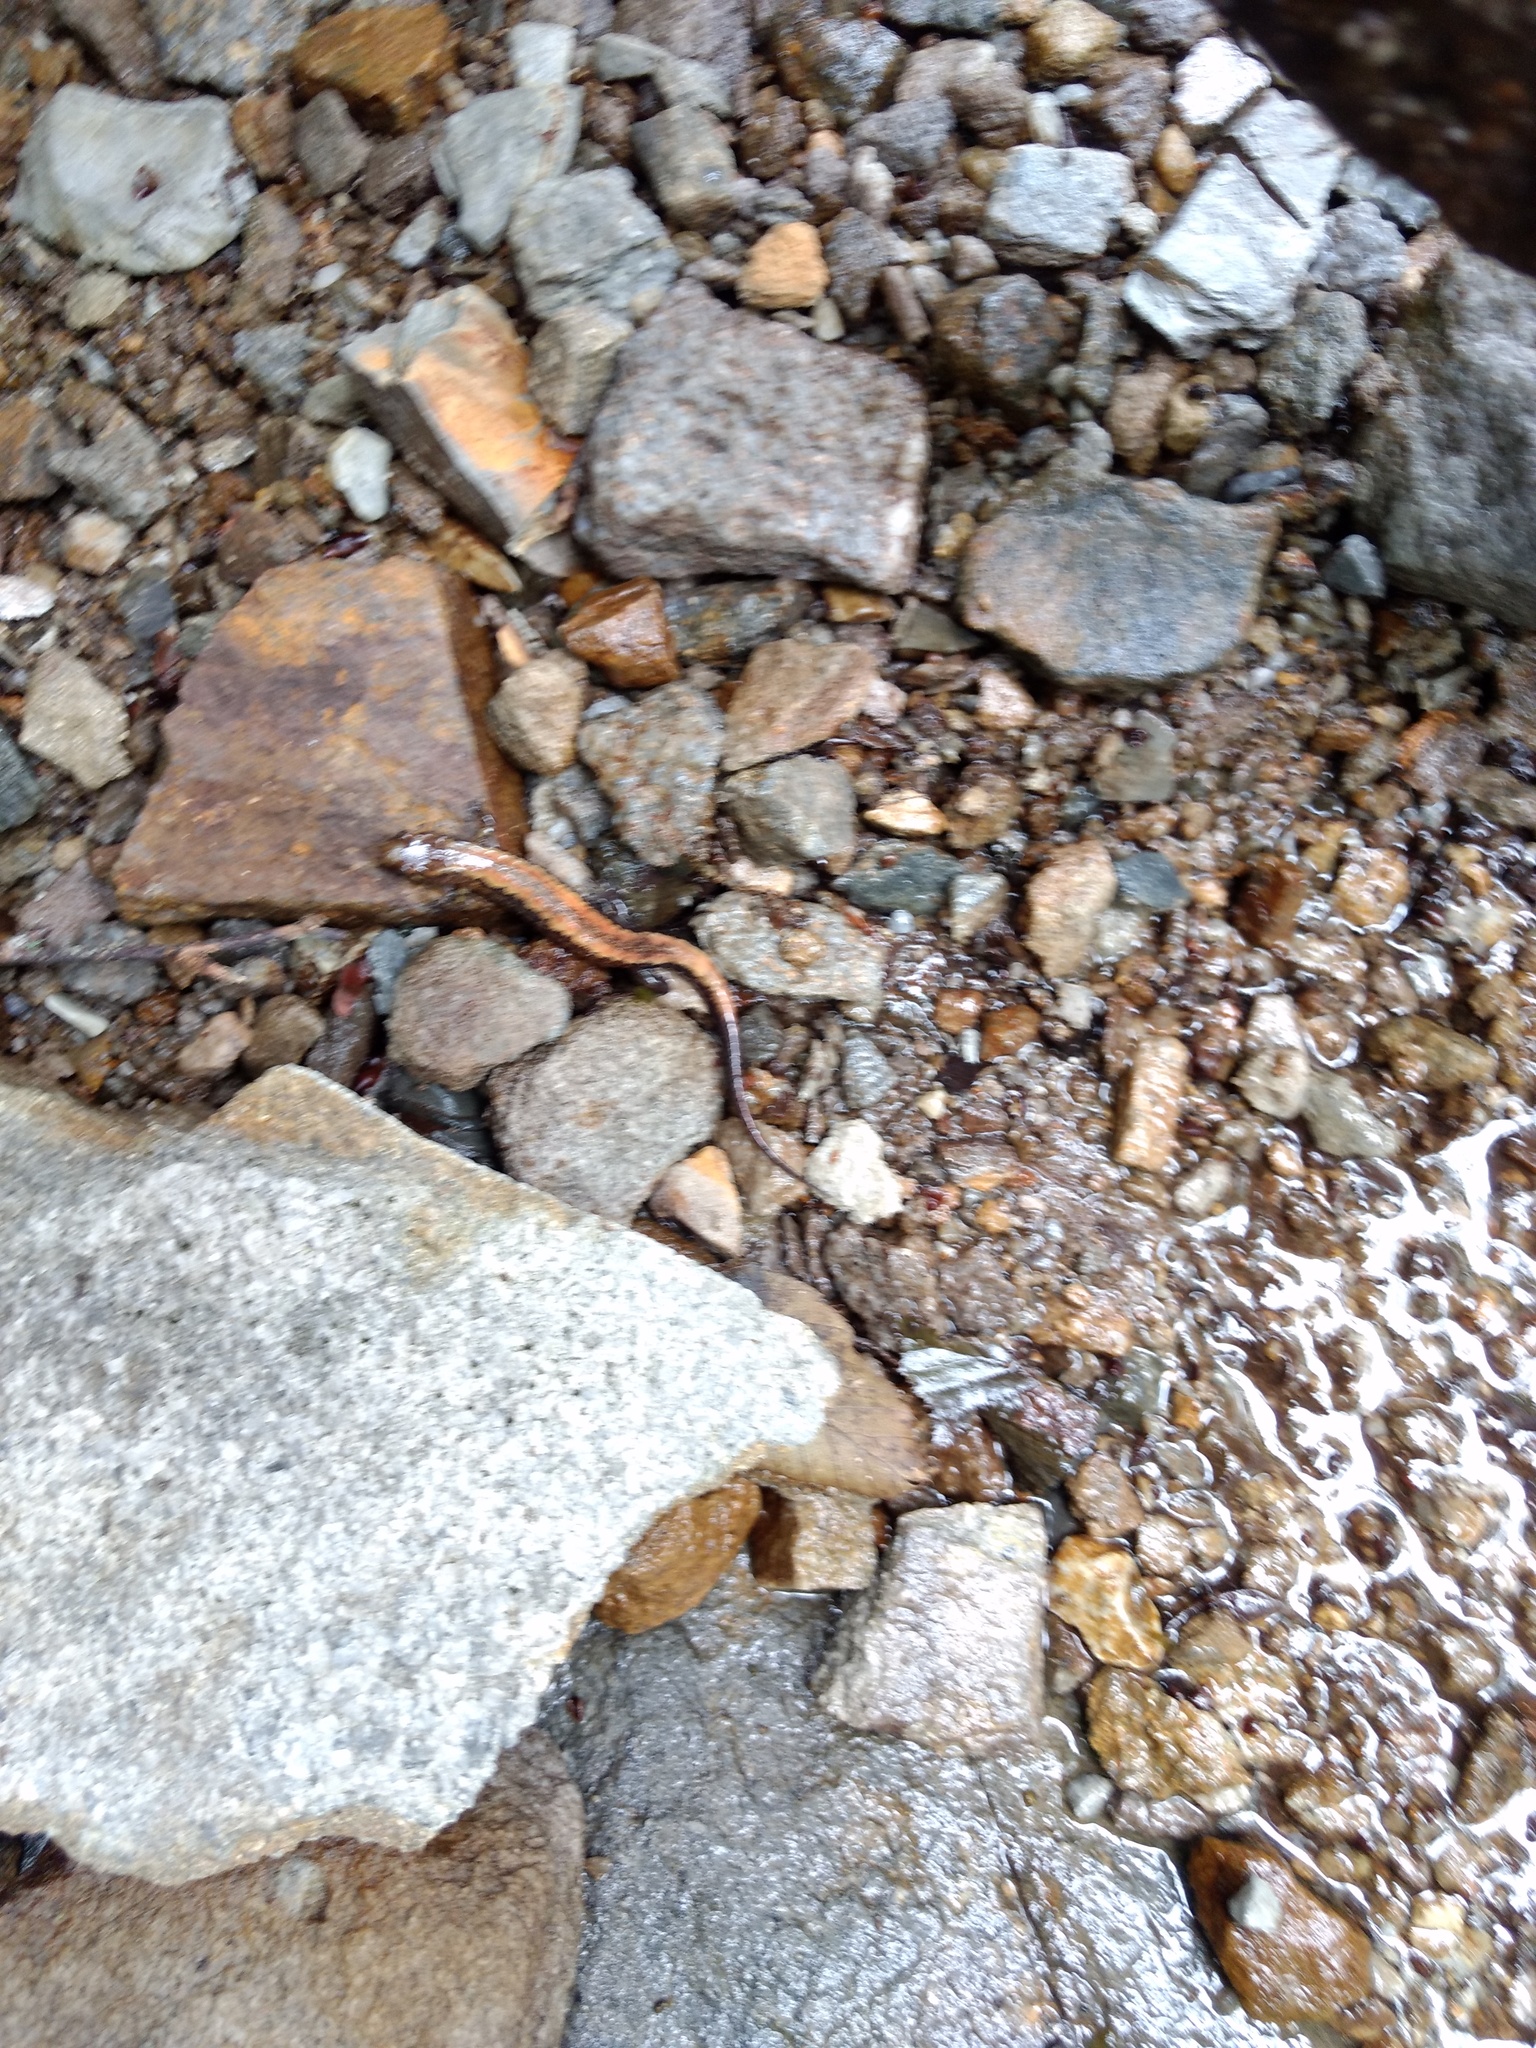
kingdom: Animalia
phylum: Chordata
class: Amphibia
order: Caudata
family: Plethodontidae
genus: Desmognathus
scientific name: Desmognathus carolinensis
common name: Carolina mountain dusky salamander
